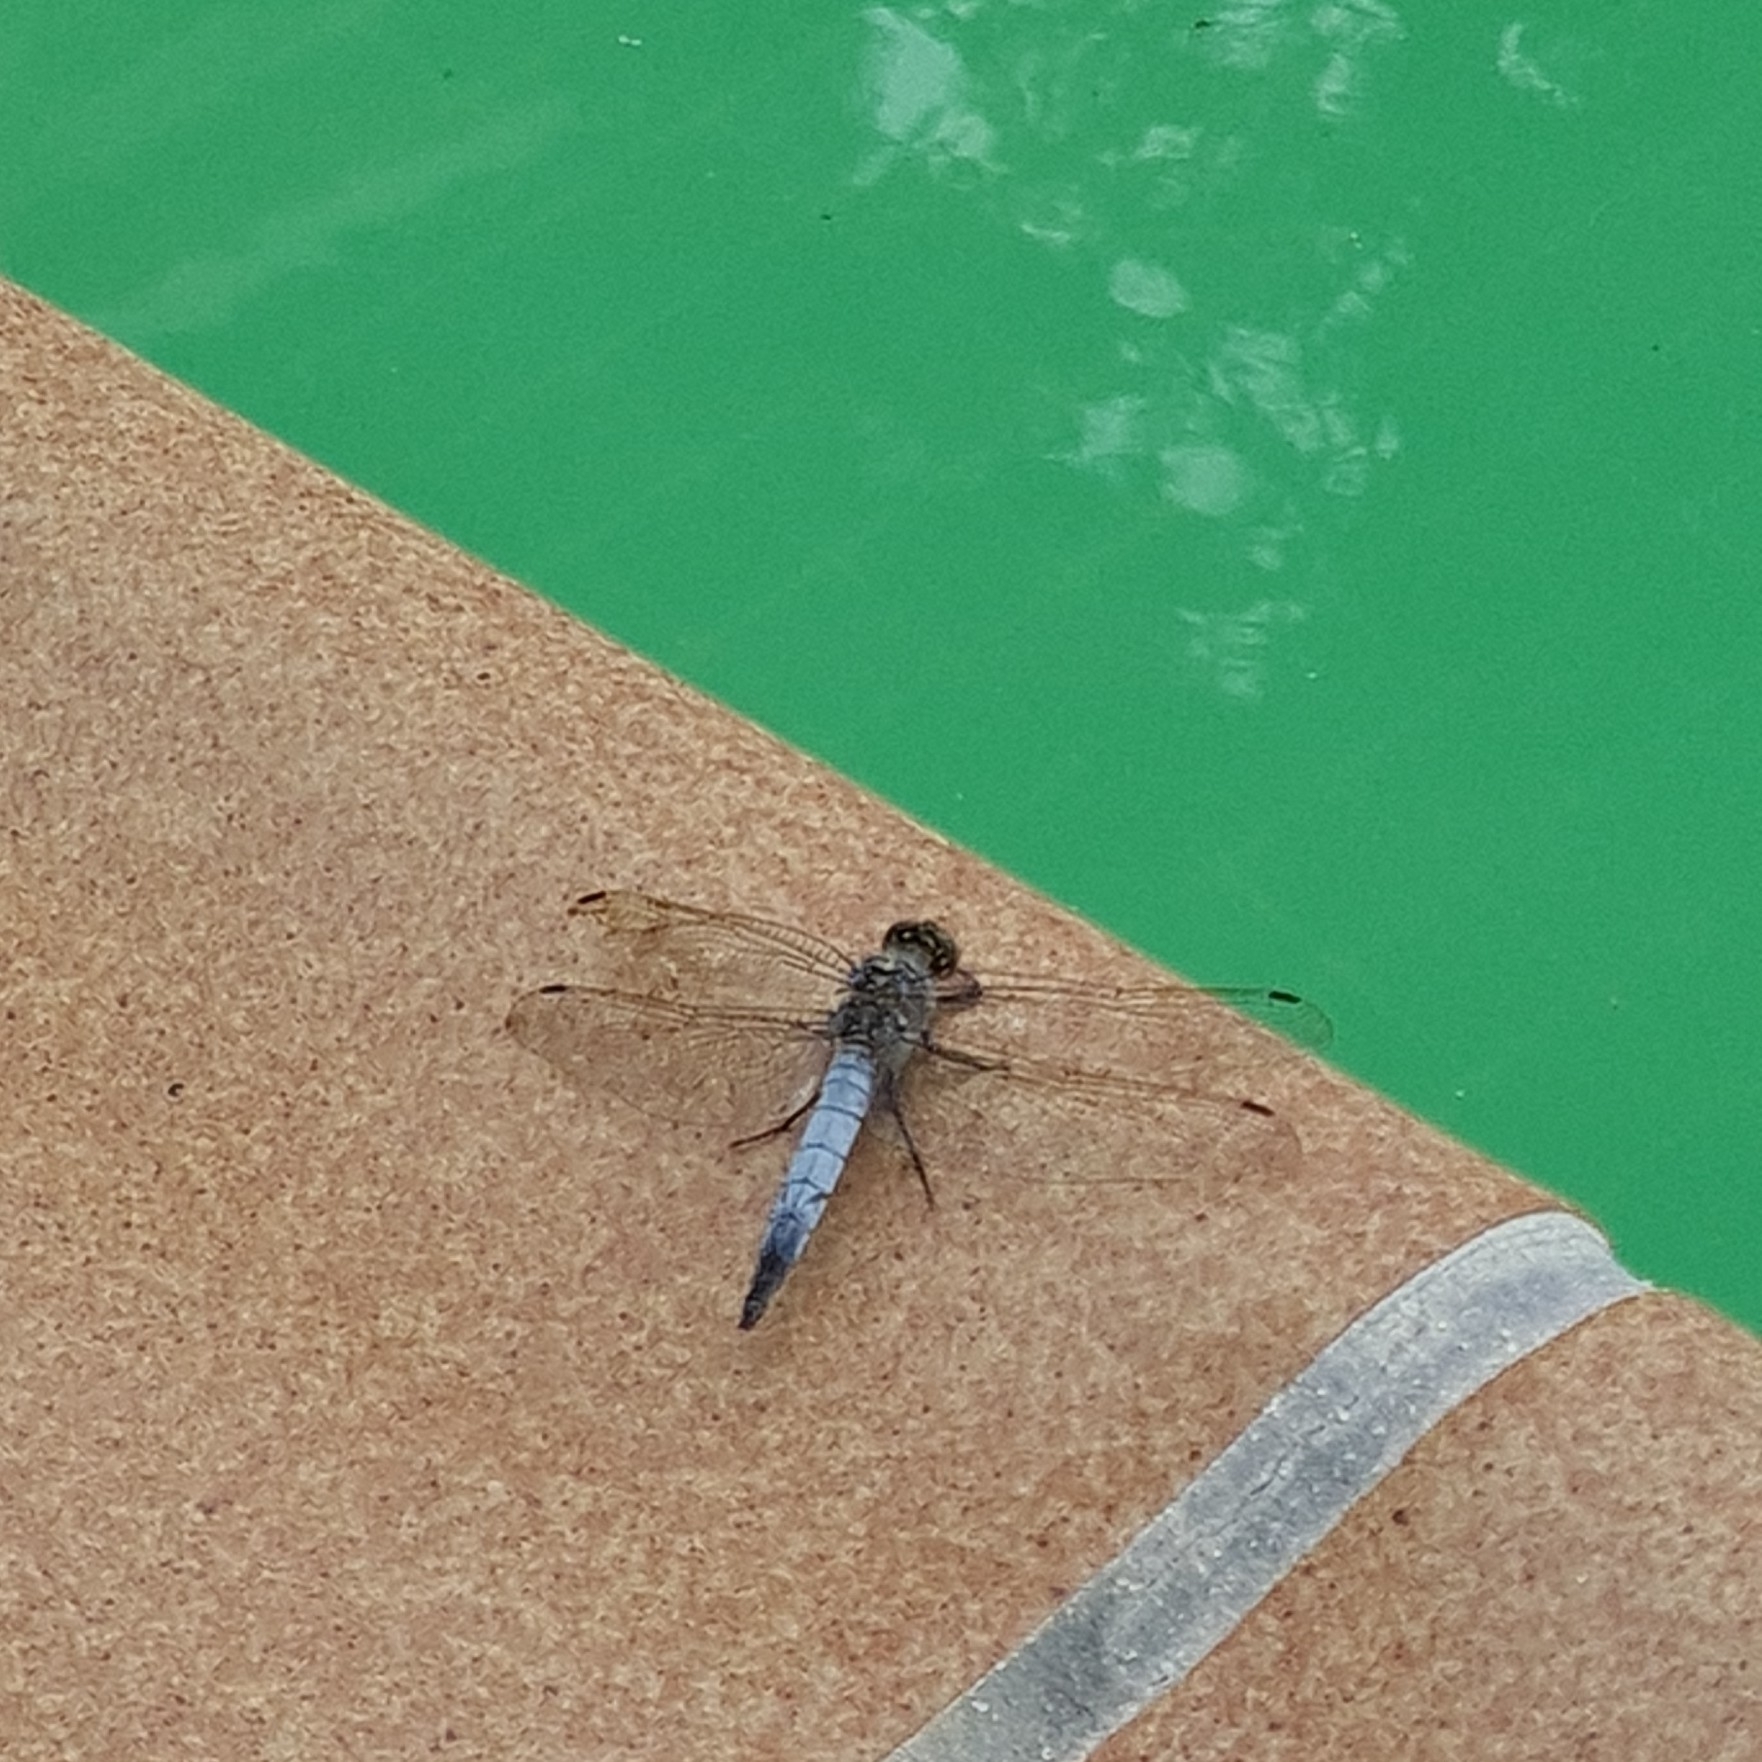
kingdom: Animalia
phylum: Arthropoda
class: Insecta
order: Odonata
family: Libellulidae
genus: Orthetrum
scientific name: Orthetrum cancellatum
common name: Black-tailed skimmer
